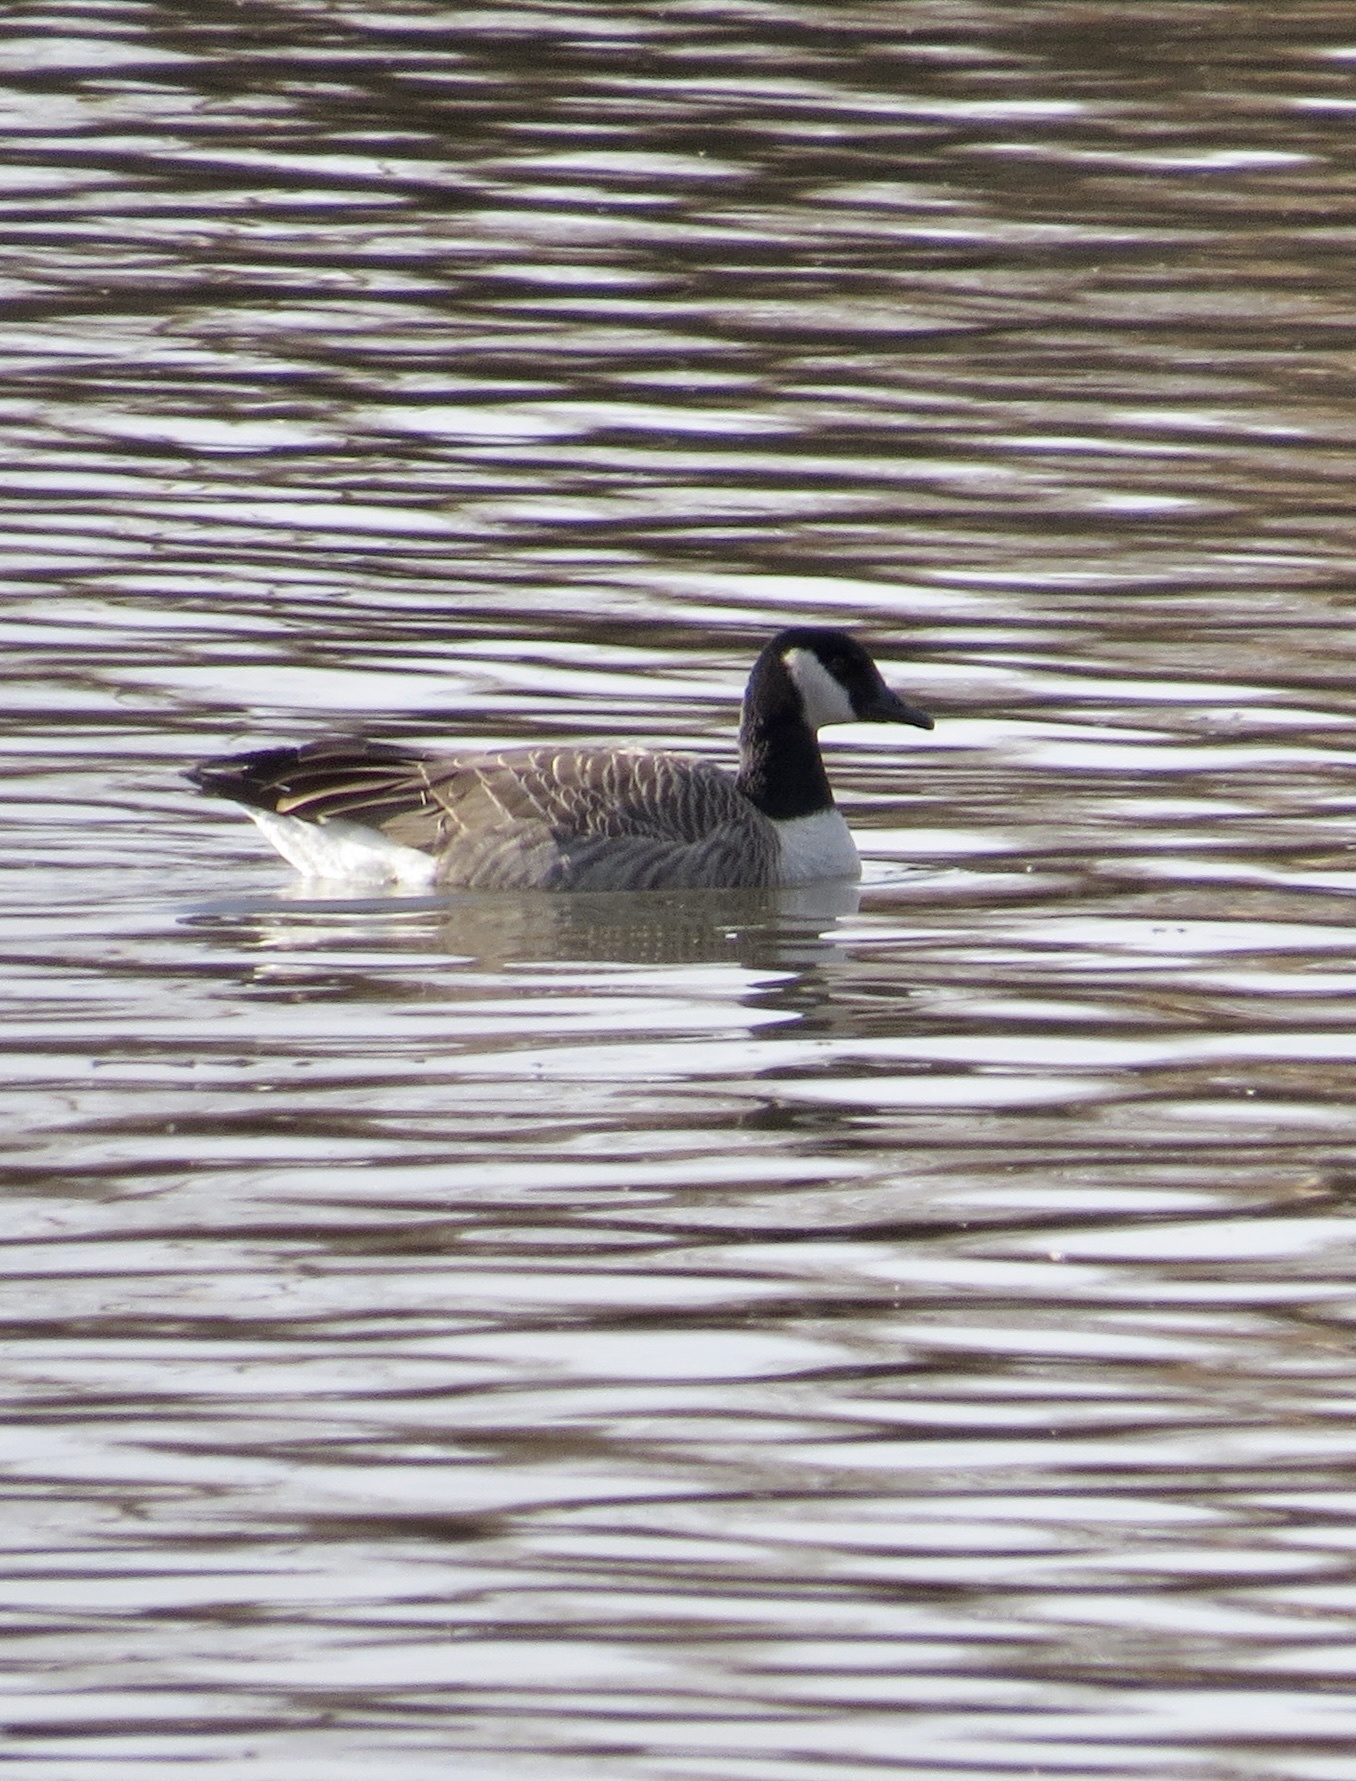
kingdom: Animalia
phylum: Chordata
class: Aves
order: Anseriformes
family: Anatidae
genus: Branta
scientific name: Branta canadensis
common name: Canada goose
